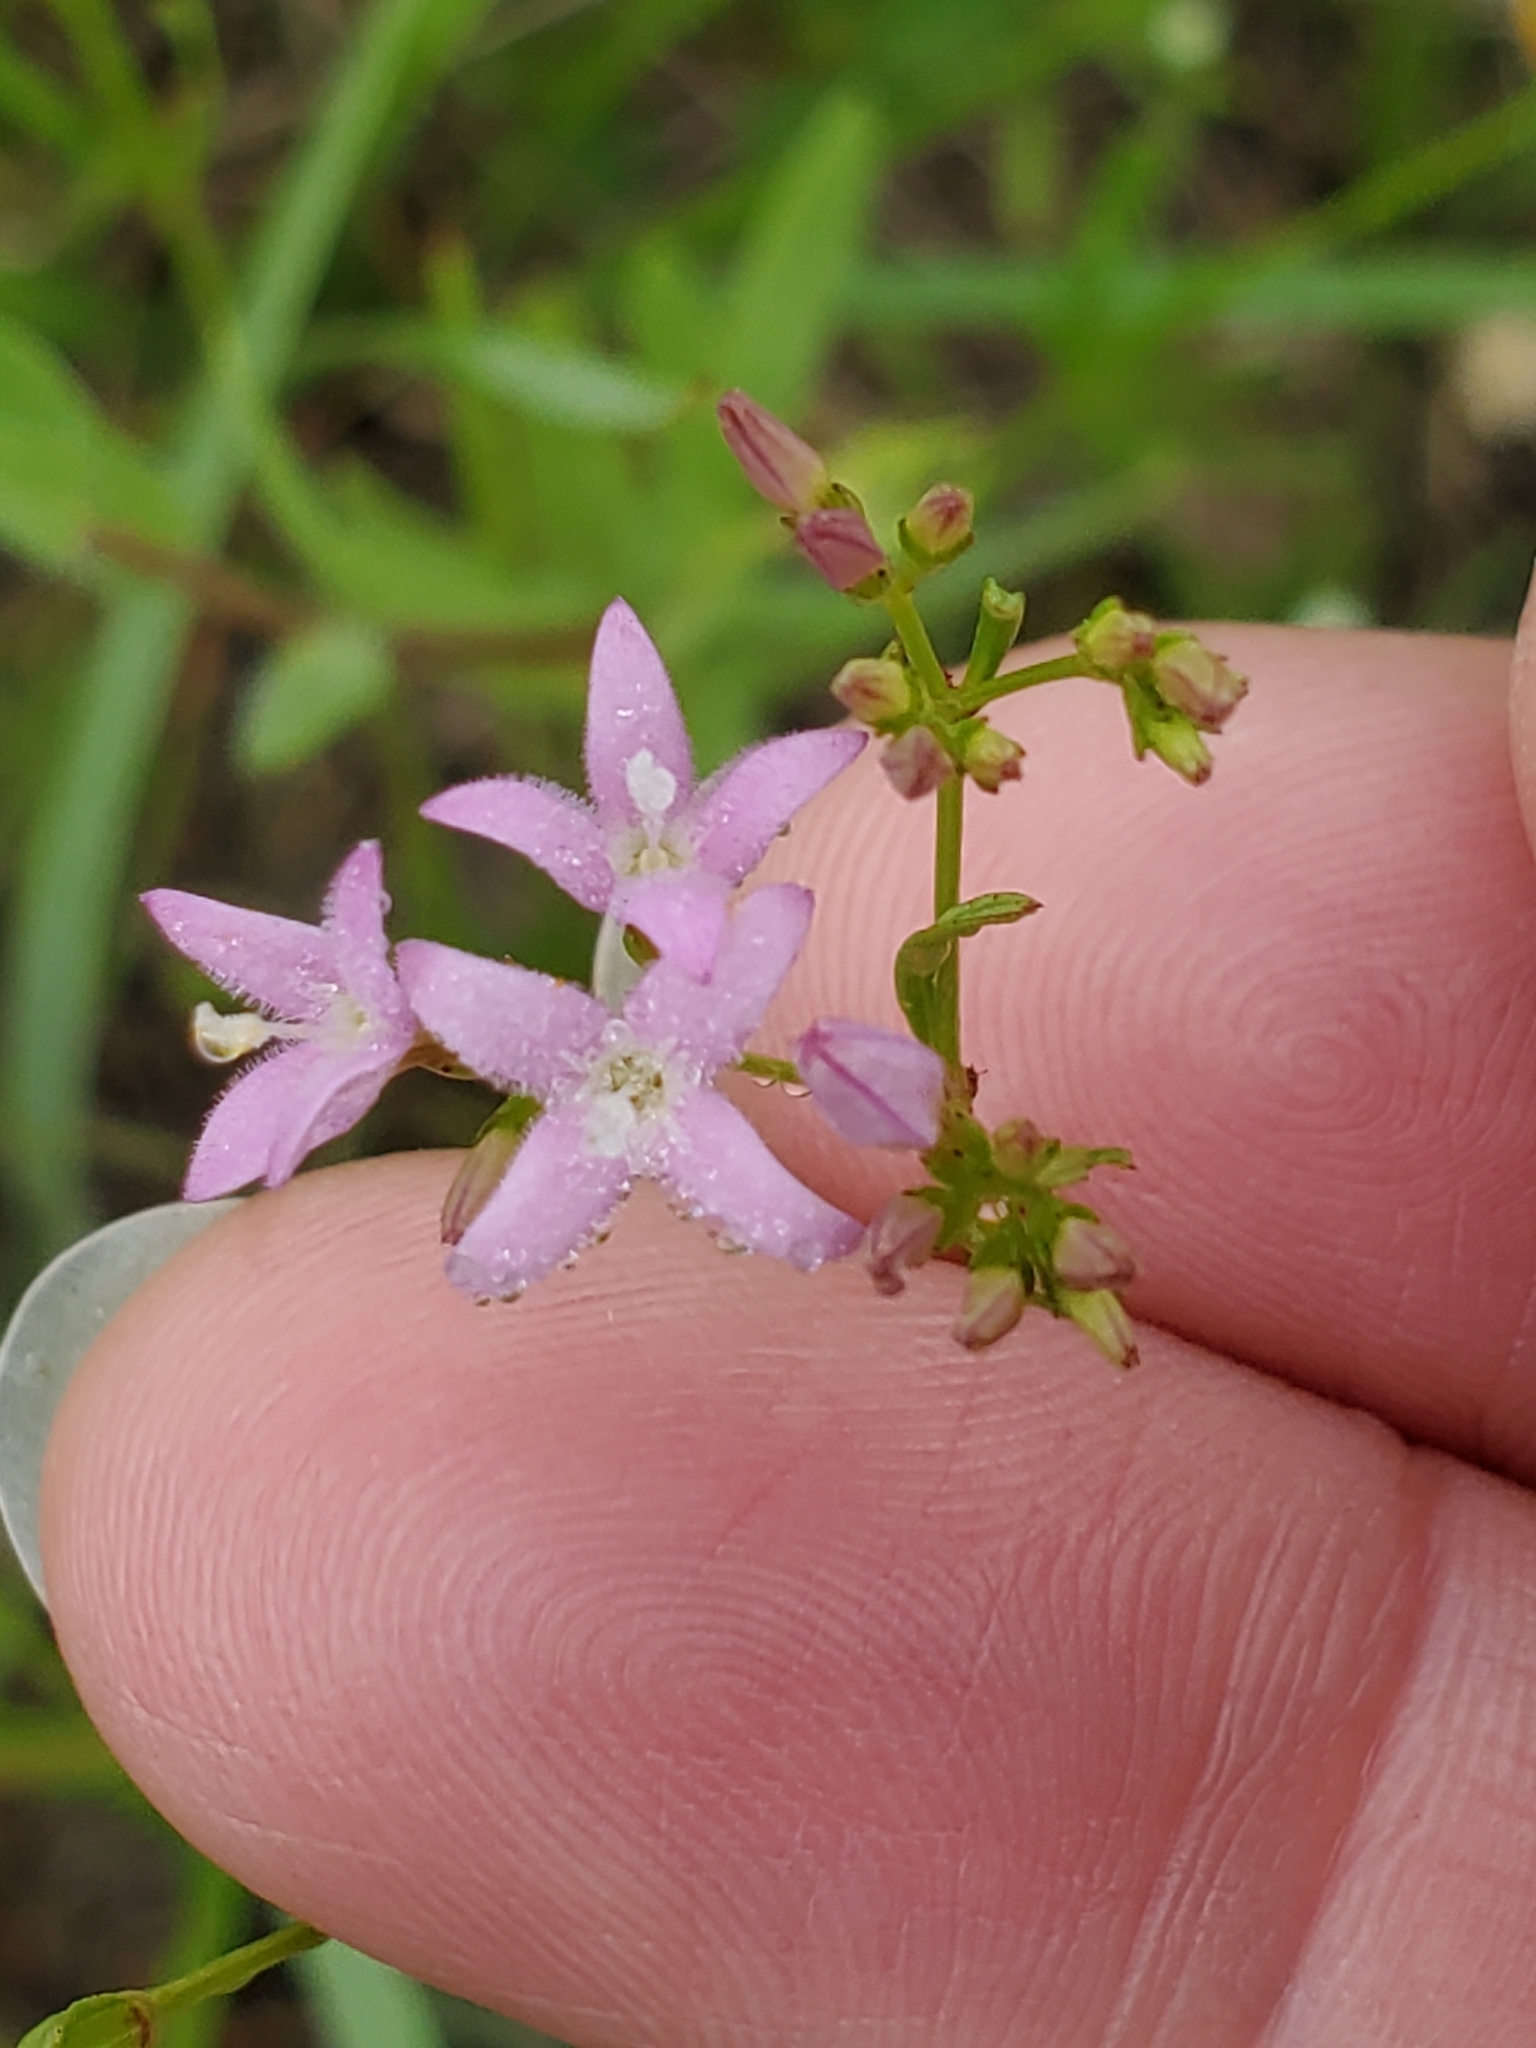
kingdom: Plantae
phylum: Tracheophyta
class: Magnoliopsida
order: Gentianales
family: Rubiaceae
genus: Stenaria
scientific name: Stenaria nigricans
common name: Diamondflowers
